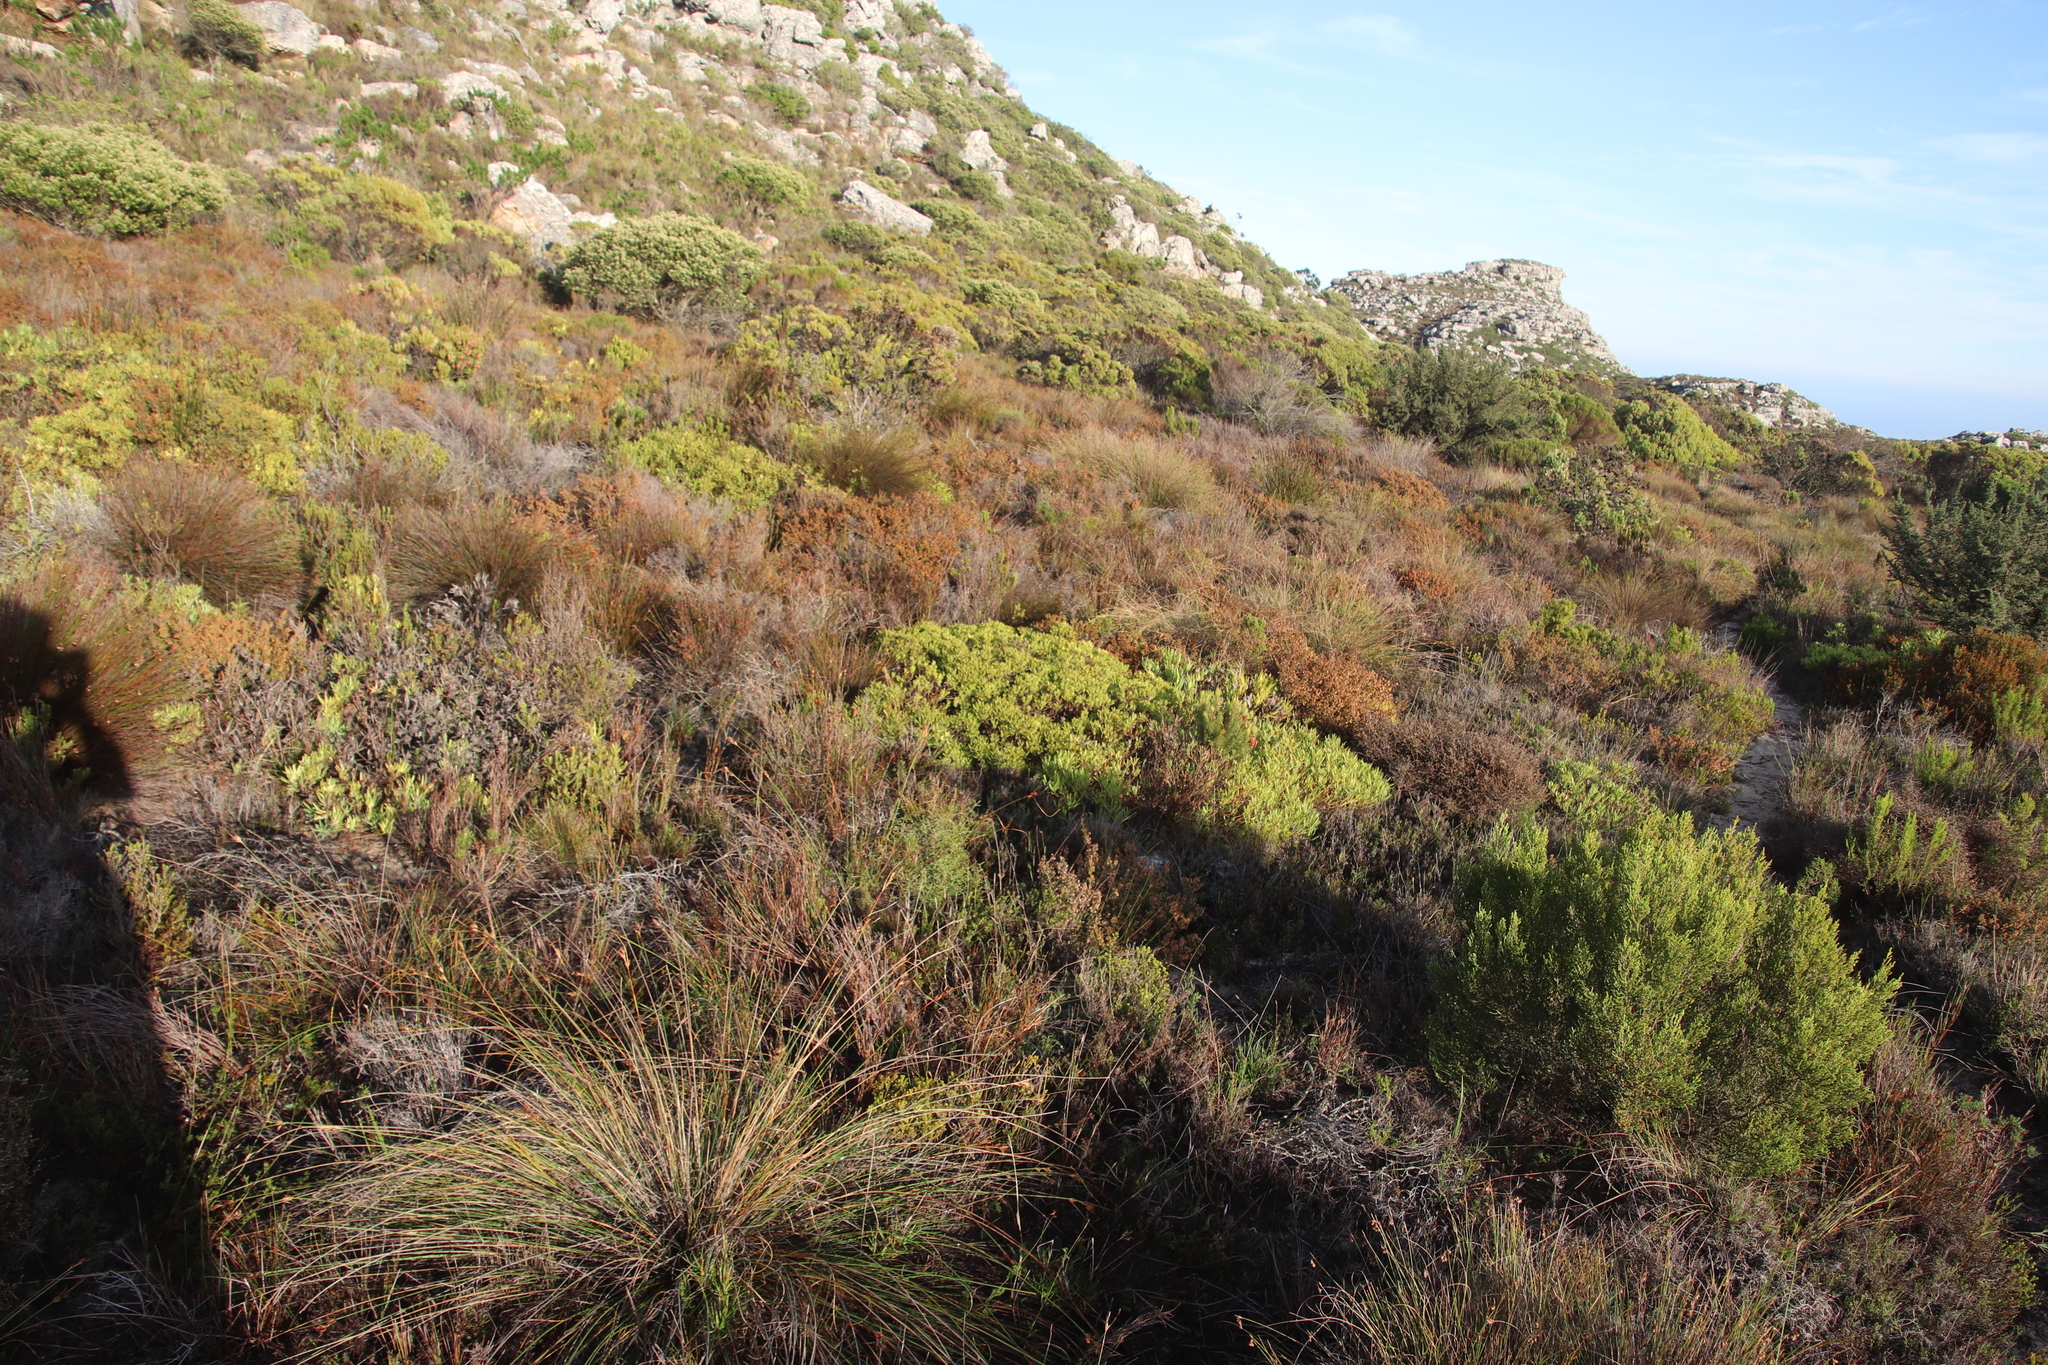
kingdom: Plantae
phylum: Tracheophyta
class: Liliopsida
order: Poales
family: Restionaceae
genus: Hypodiscus
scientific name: Hypodiscus aristatus
